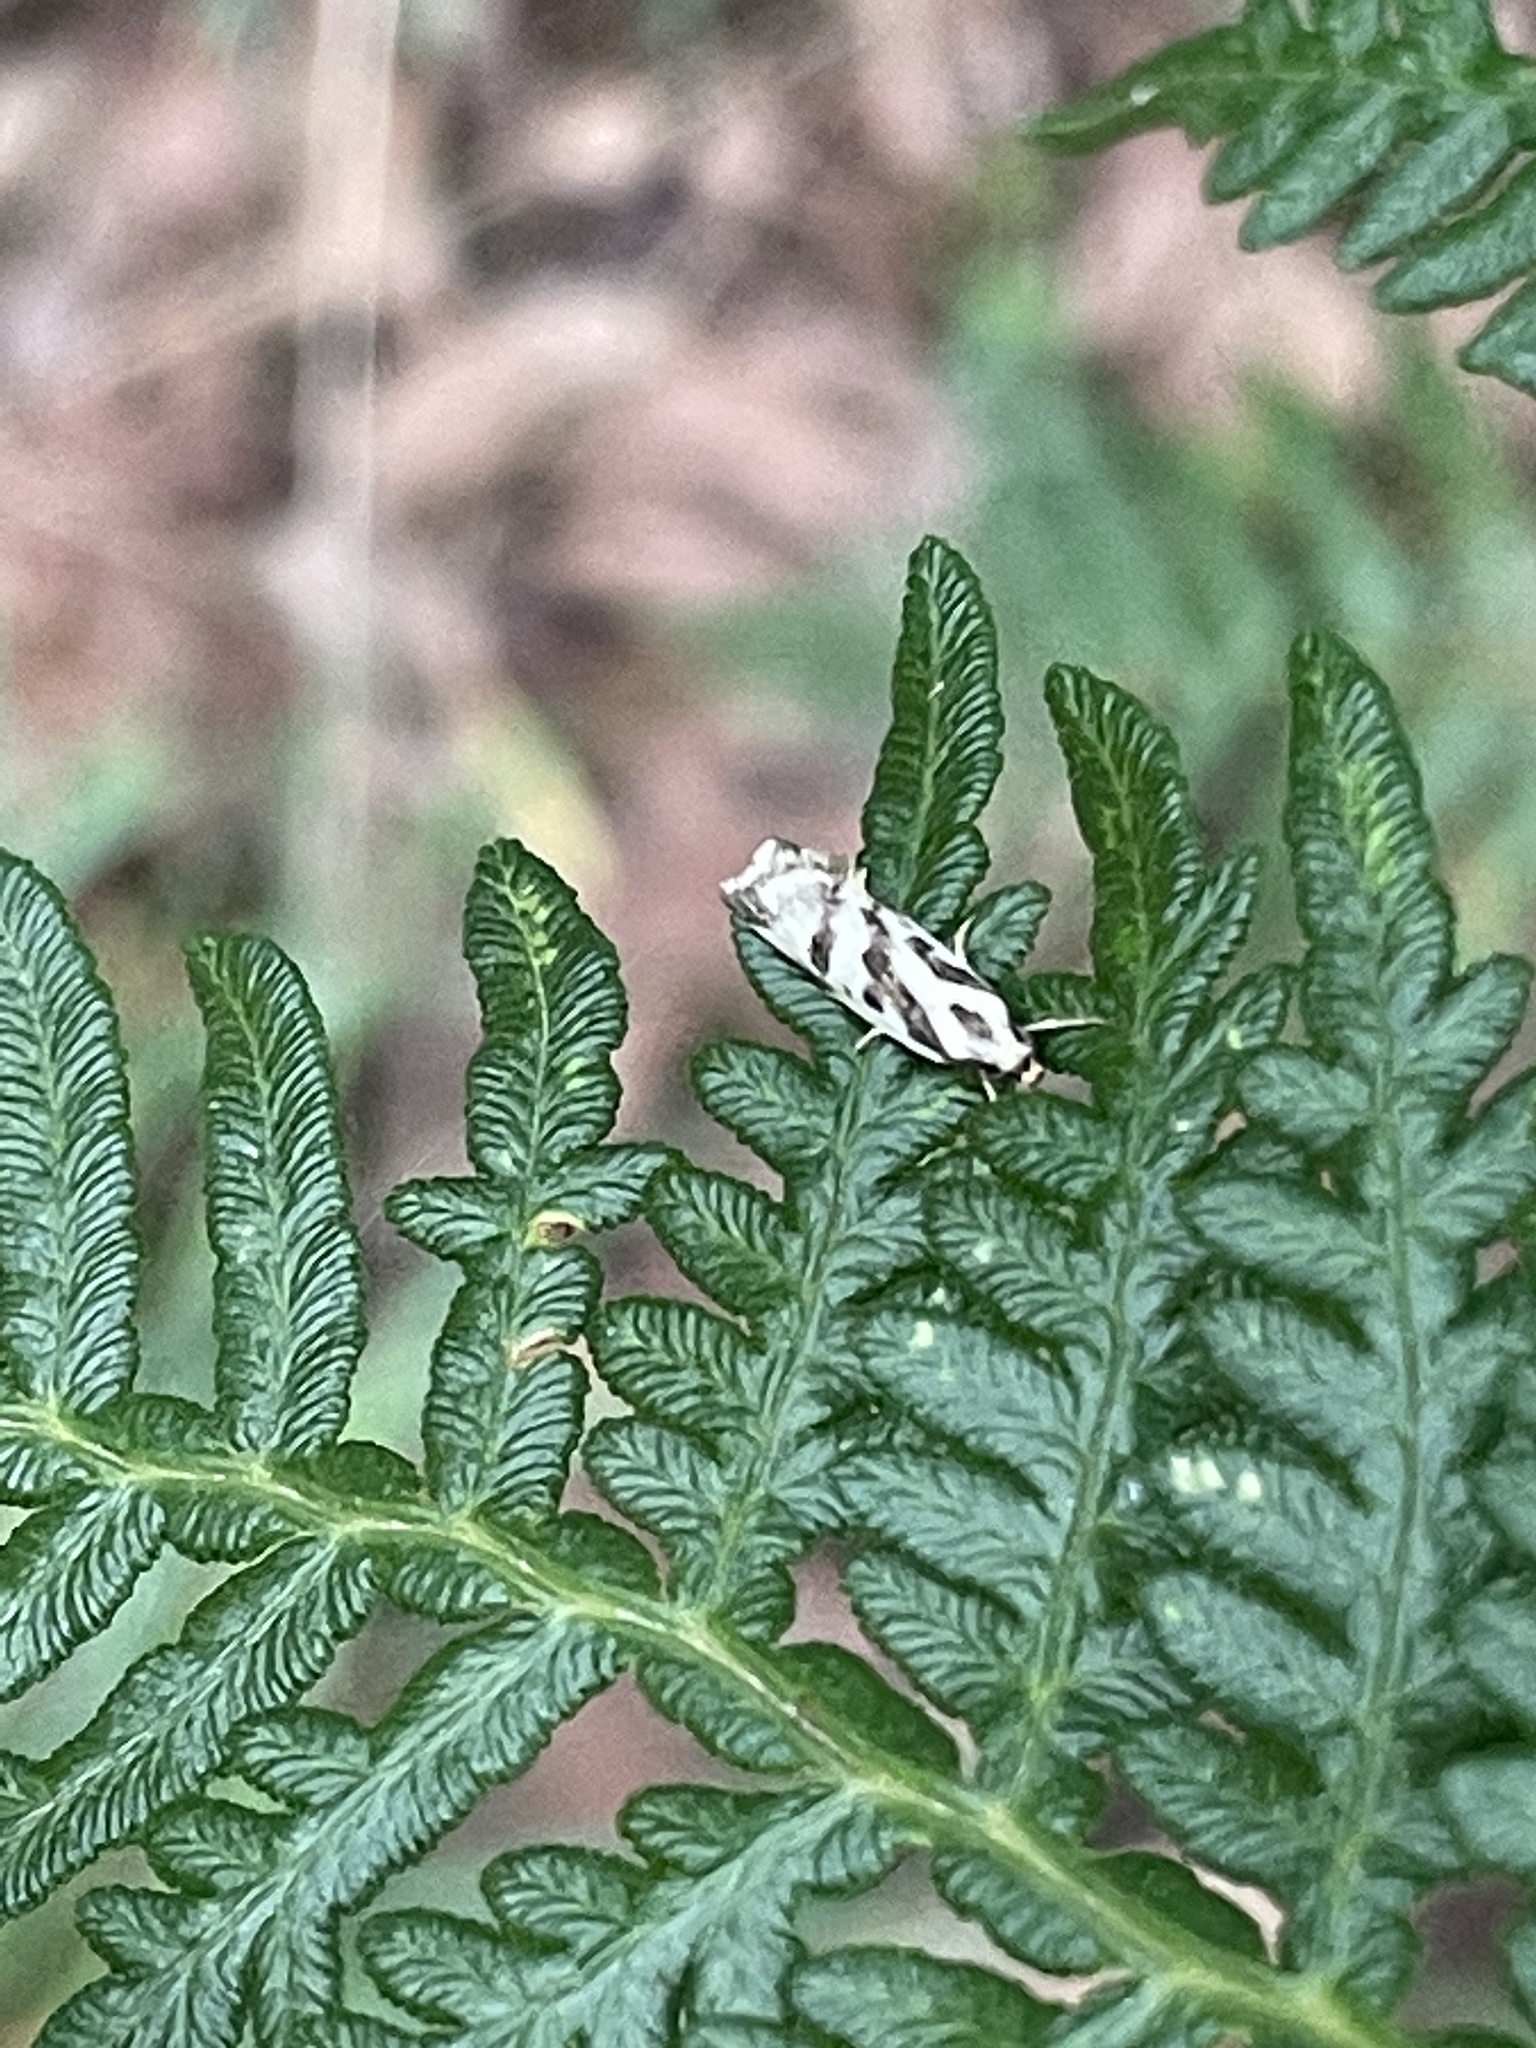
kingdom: Animalia
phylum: Arthropoda
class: Insecta
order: Lepidoptera
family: Oecophoridae
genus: Epithymema
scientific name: Epithymema incomposita
